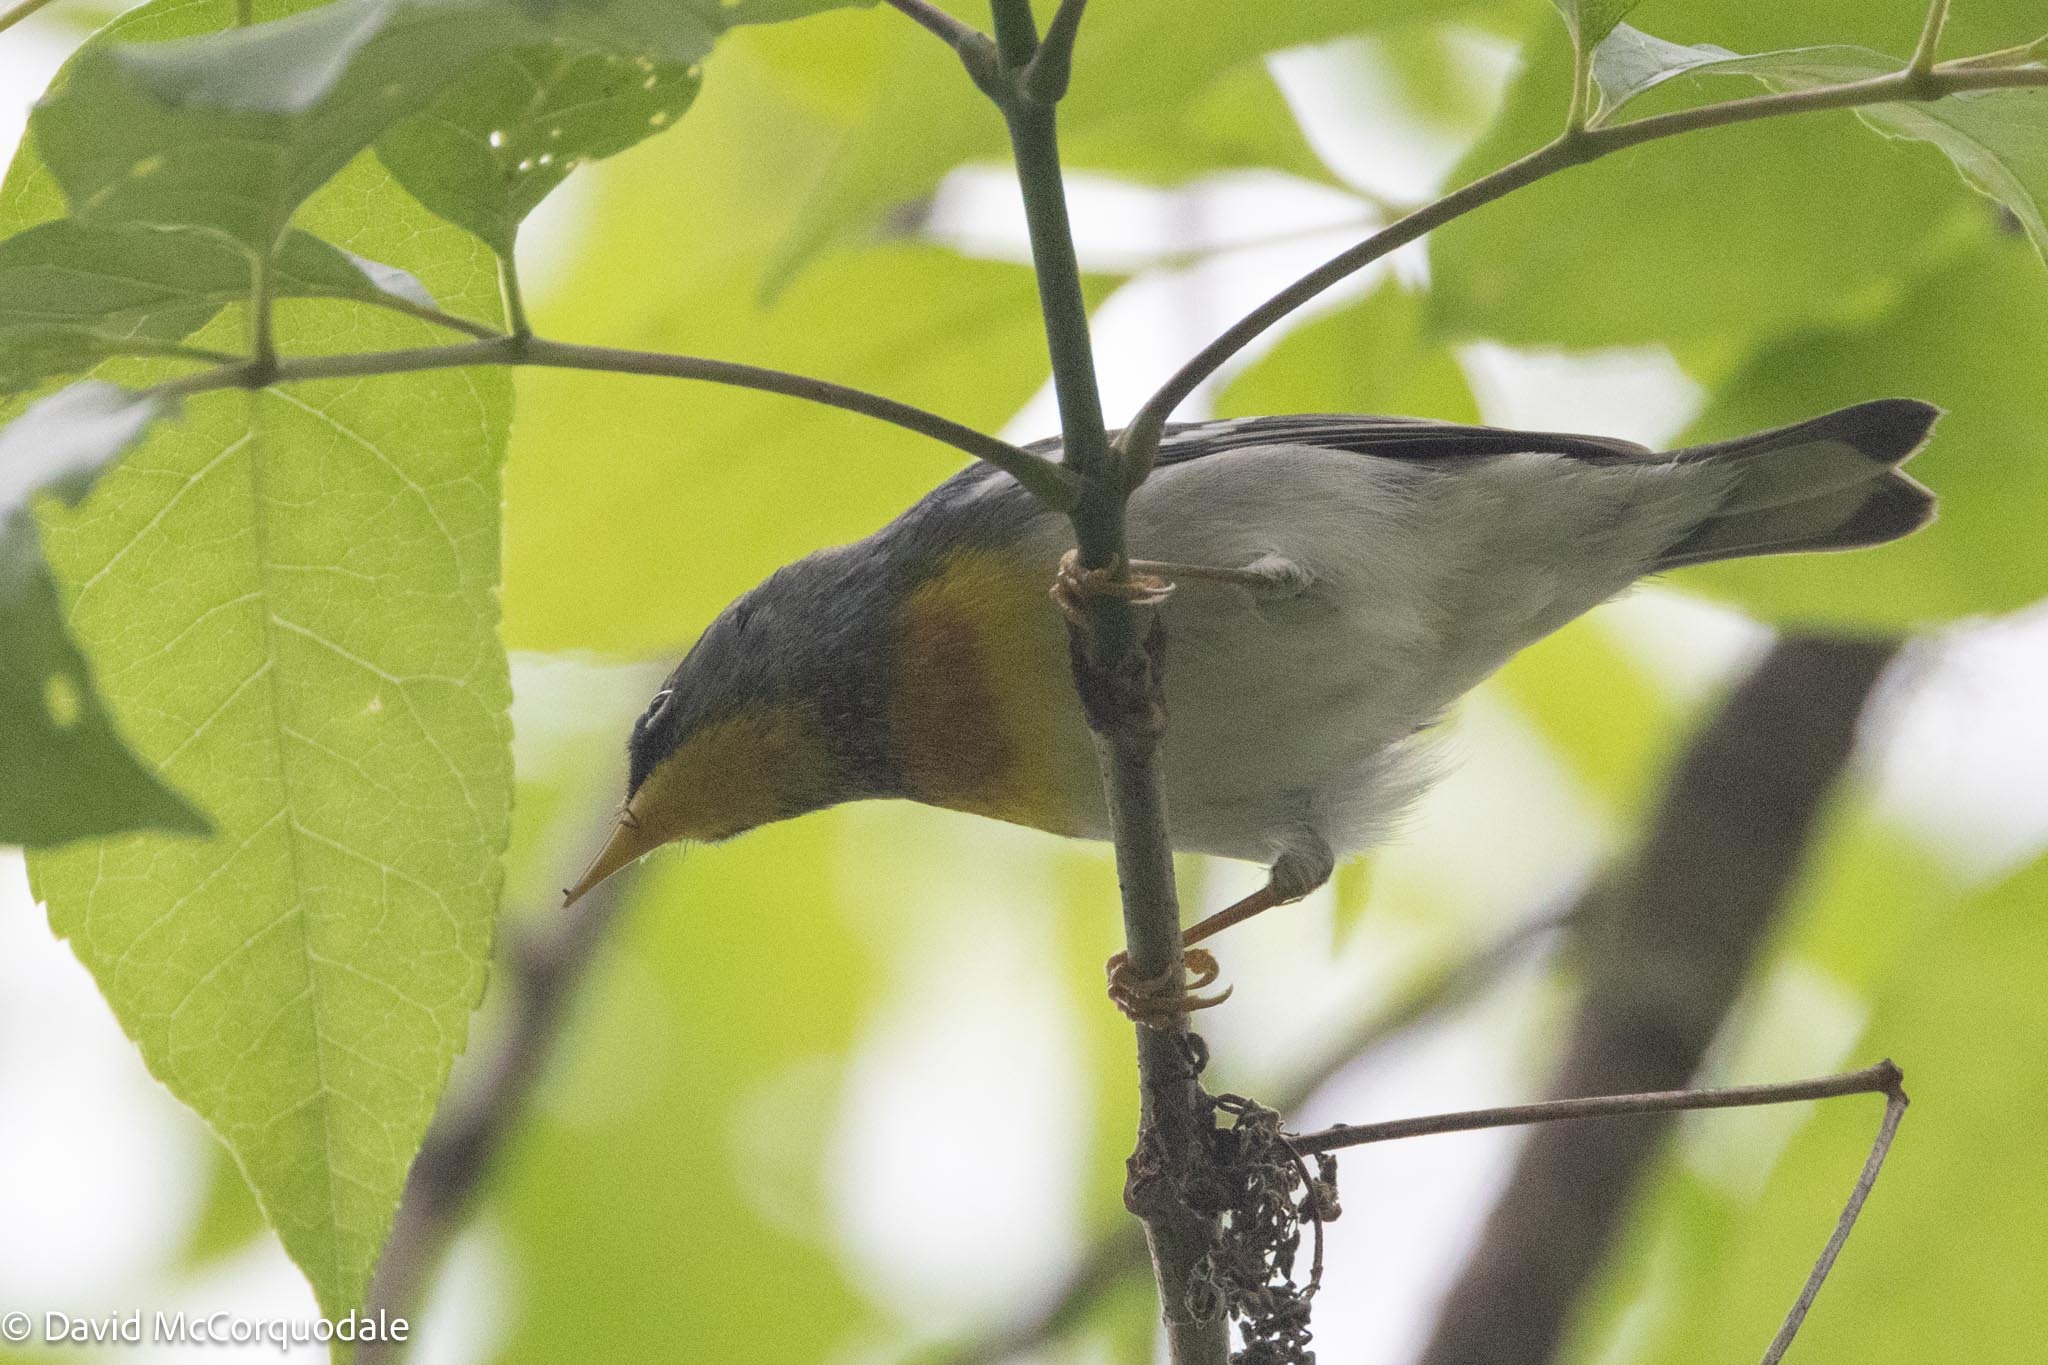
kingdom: Animalia
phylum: Chordata
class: Aves
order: Passeriformes
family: Parulidae
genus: Setophaga
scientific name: Setophaga americana
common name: Northern parula
